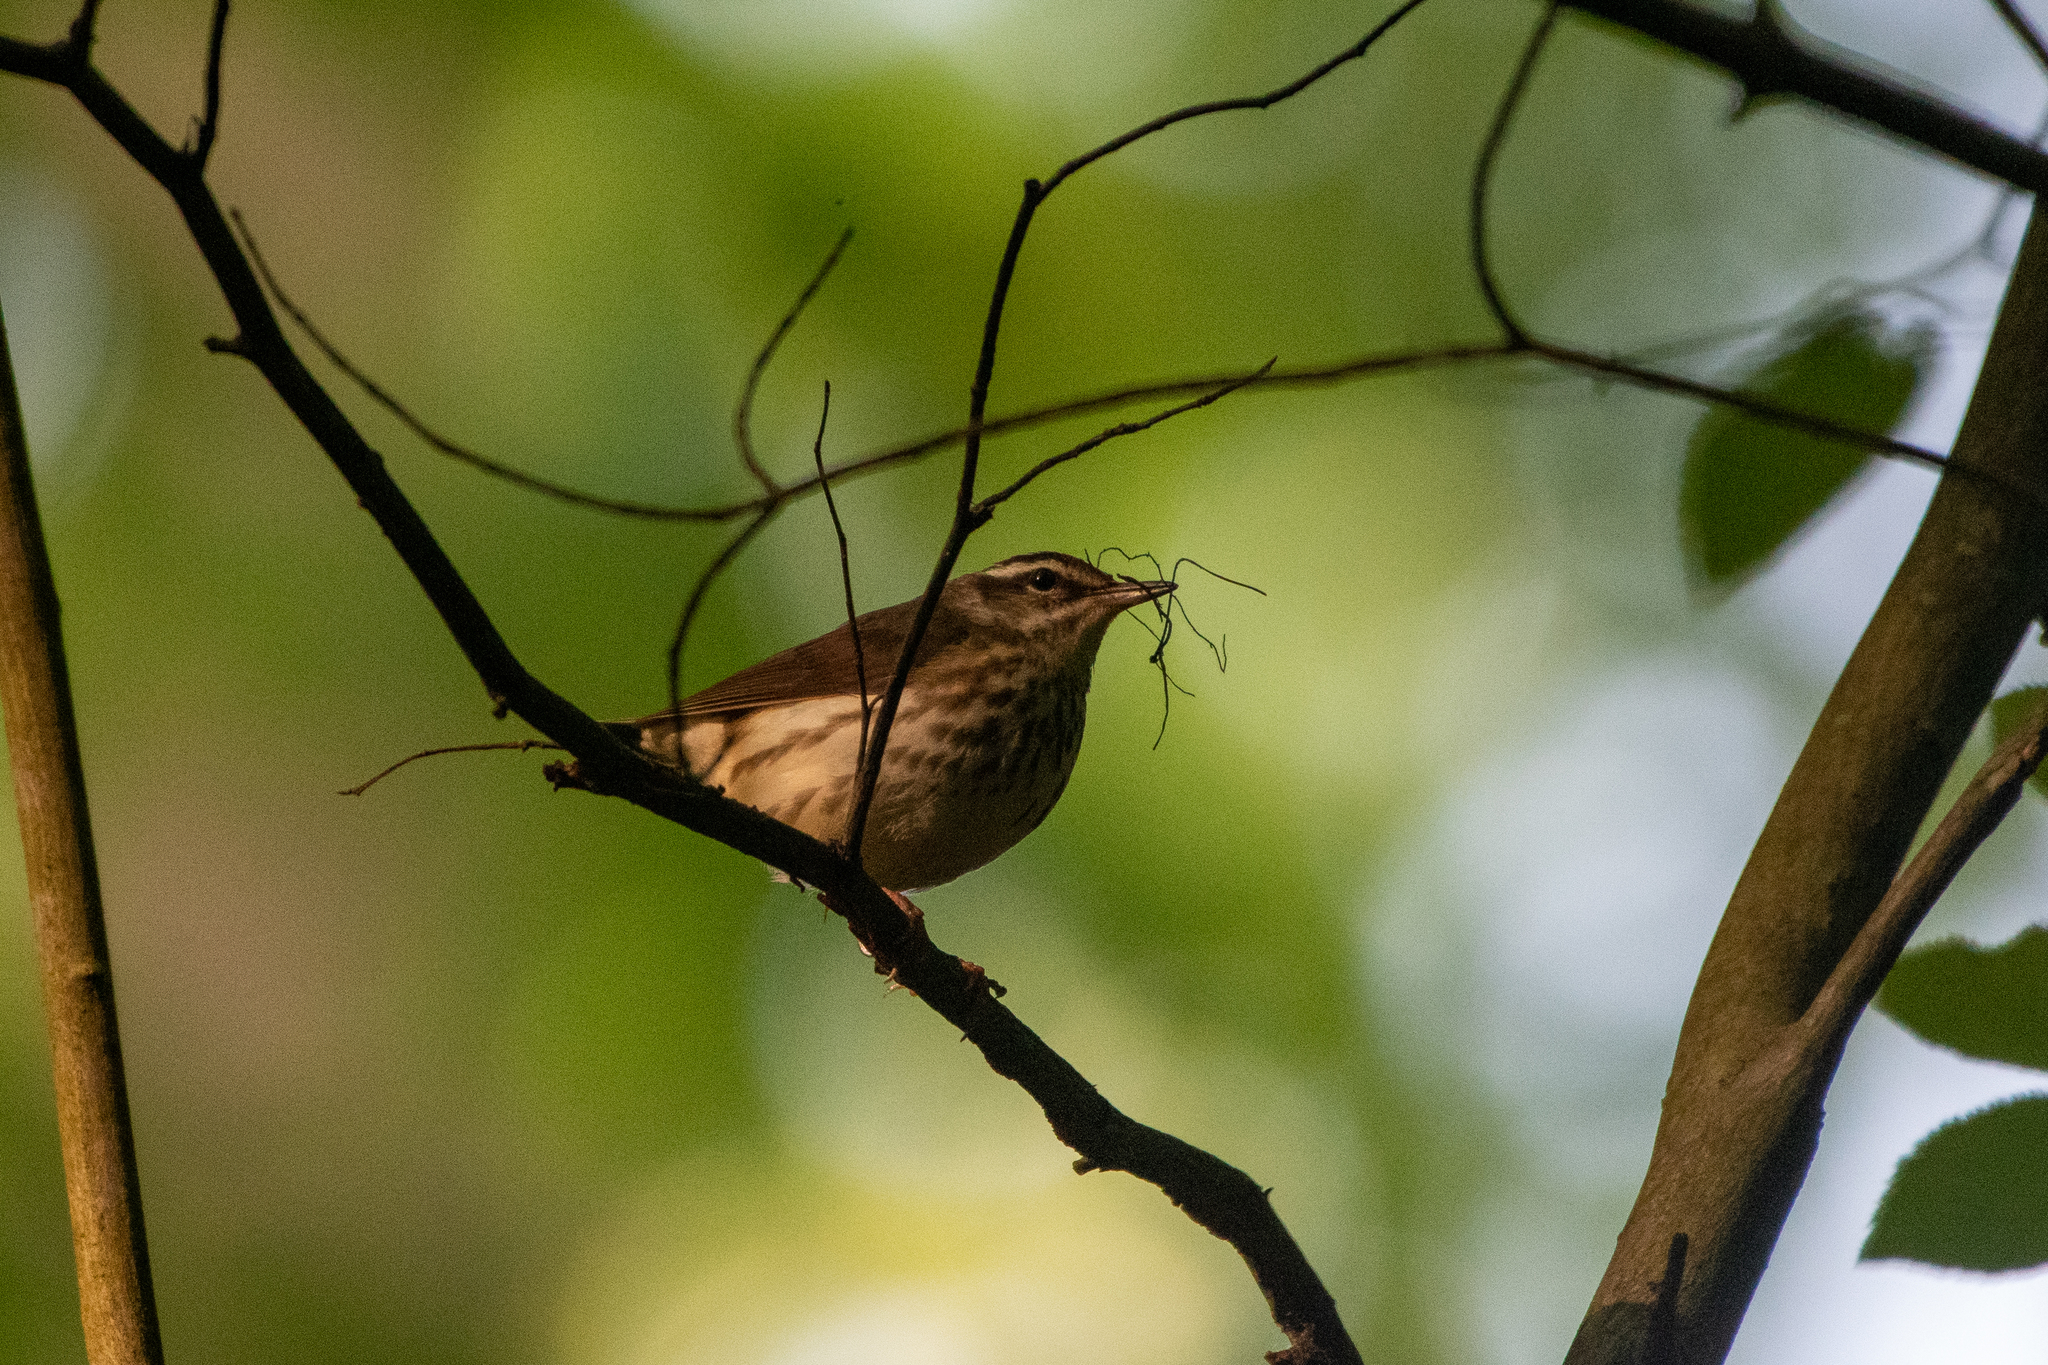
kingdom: Animalia
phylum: Chordata
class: Aves
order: Passeriformes
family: Parulidae
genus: Parkesia
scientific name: Parkesia motacilla
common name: Louisiana waterthrush
